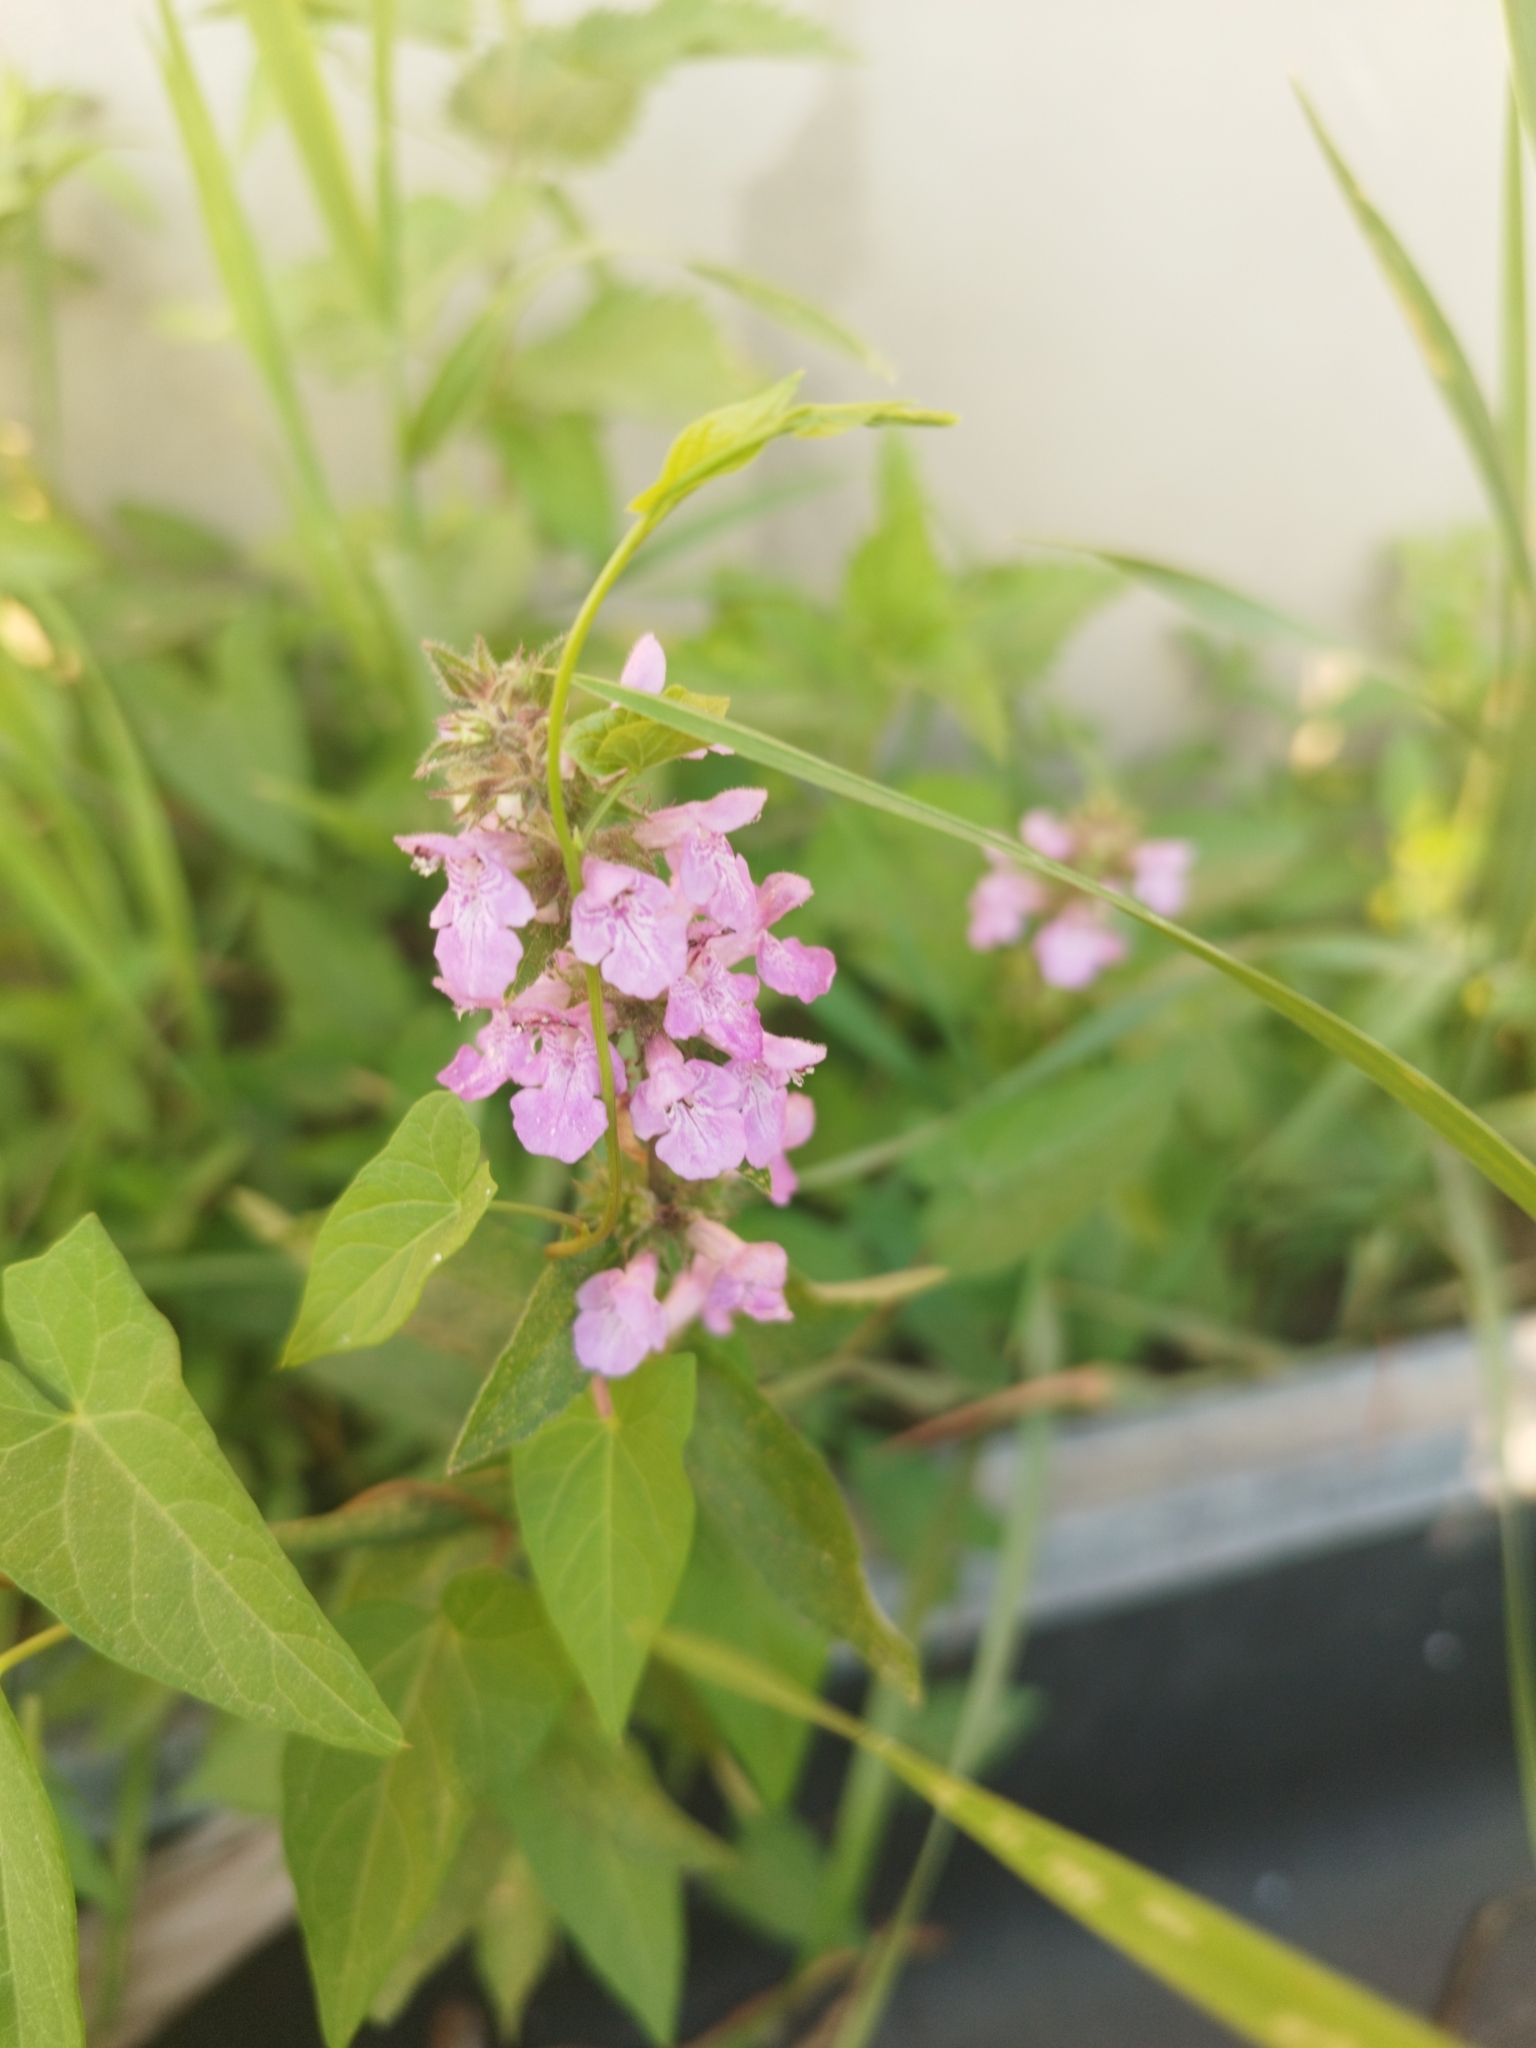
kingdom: Plantae
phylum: Tracheophyta
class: Magnoliopsida
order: Lamiales
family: Lamiaceae
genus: Stachys
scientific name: Stachys palustris
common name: Marsh woundwort
